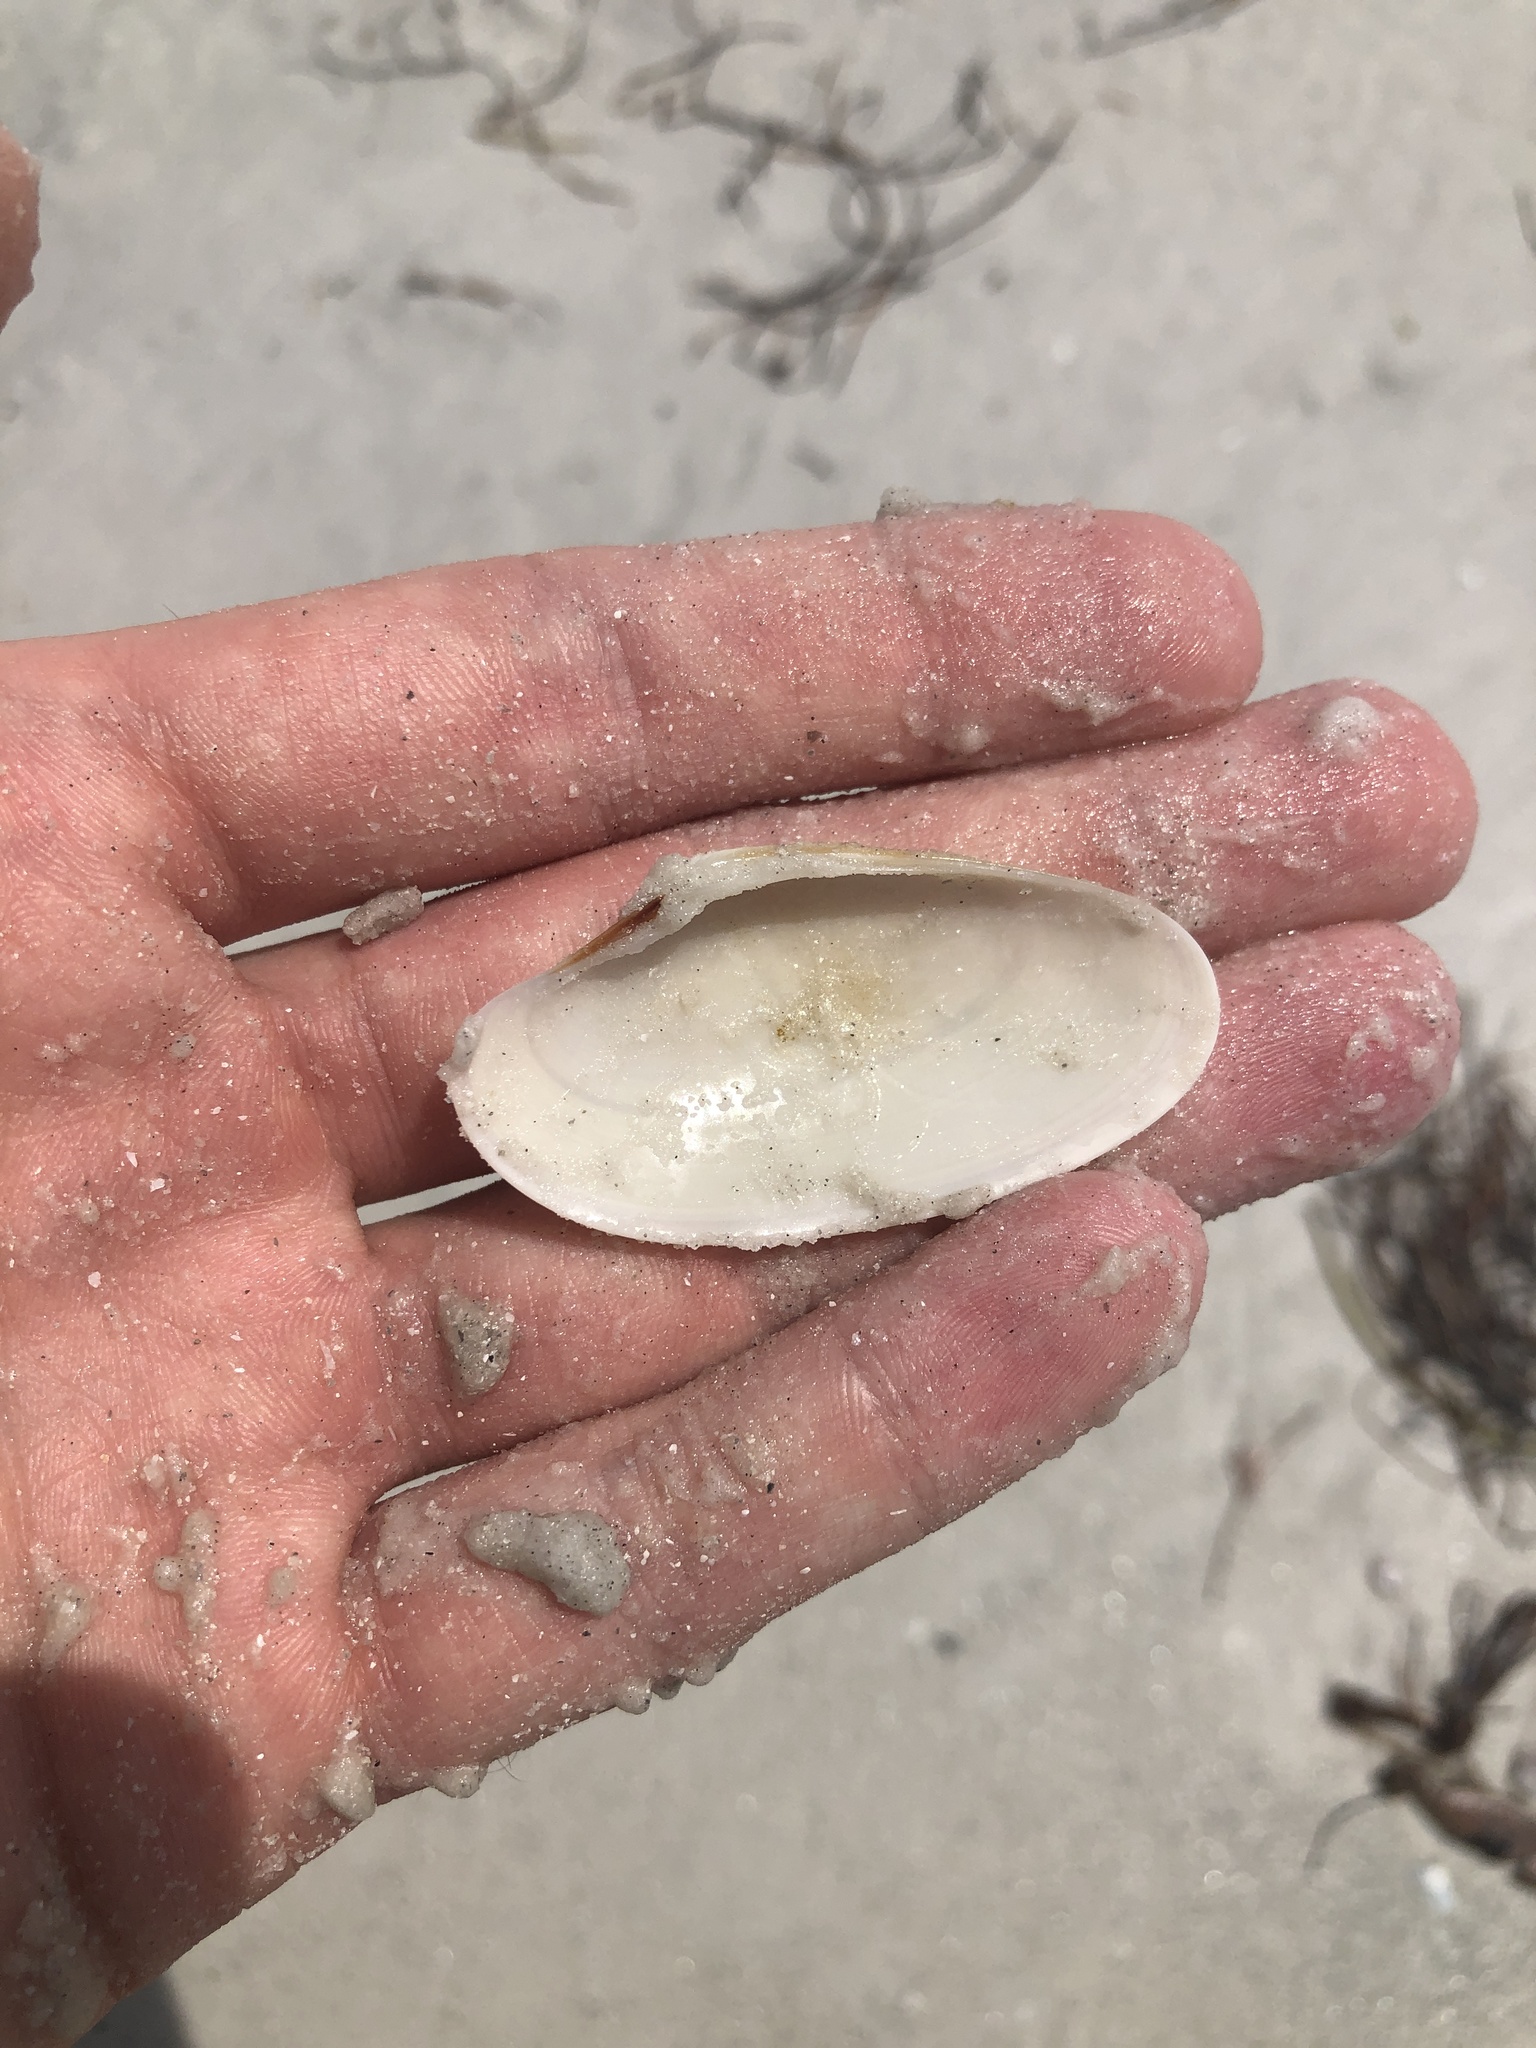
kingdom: Animalia
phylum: Mollusca
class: Bivalvia
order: Venerida
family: Veneridae
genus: Macrocallista
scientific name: Macrocallista nimbosa
